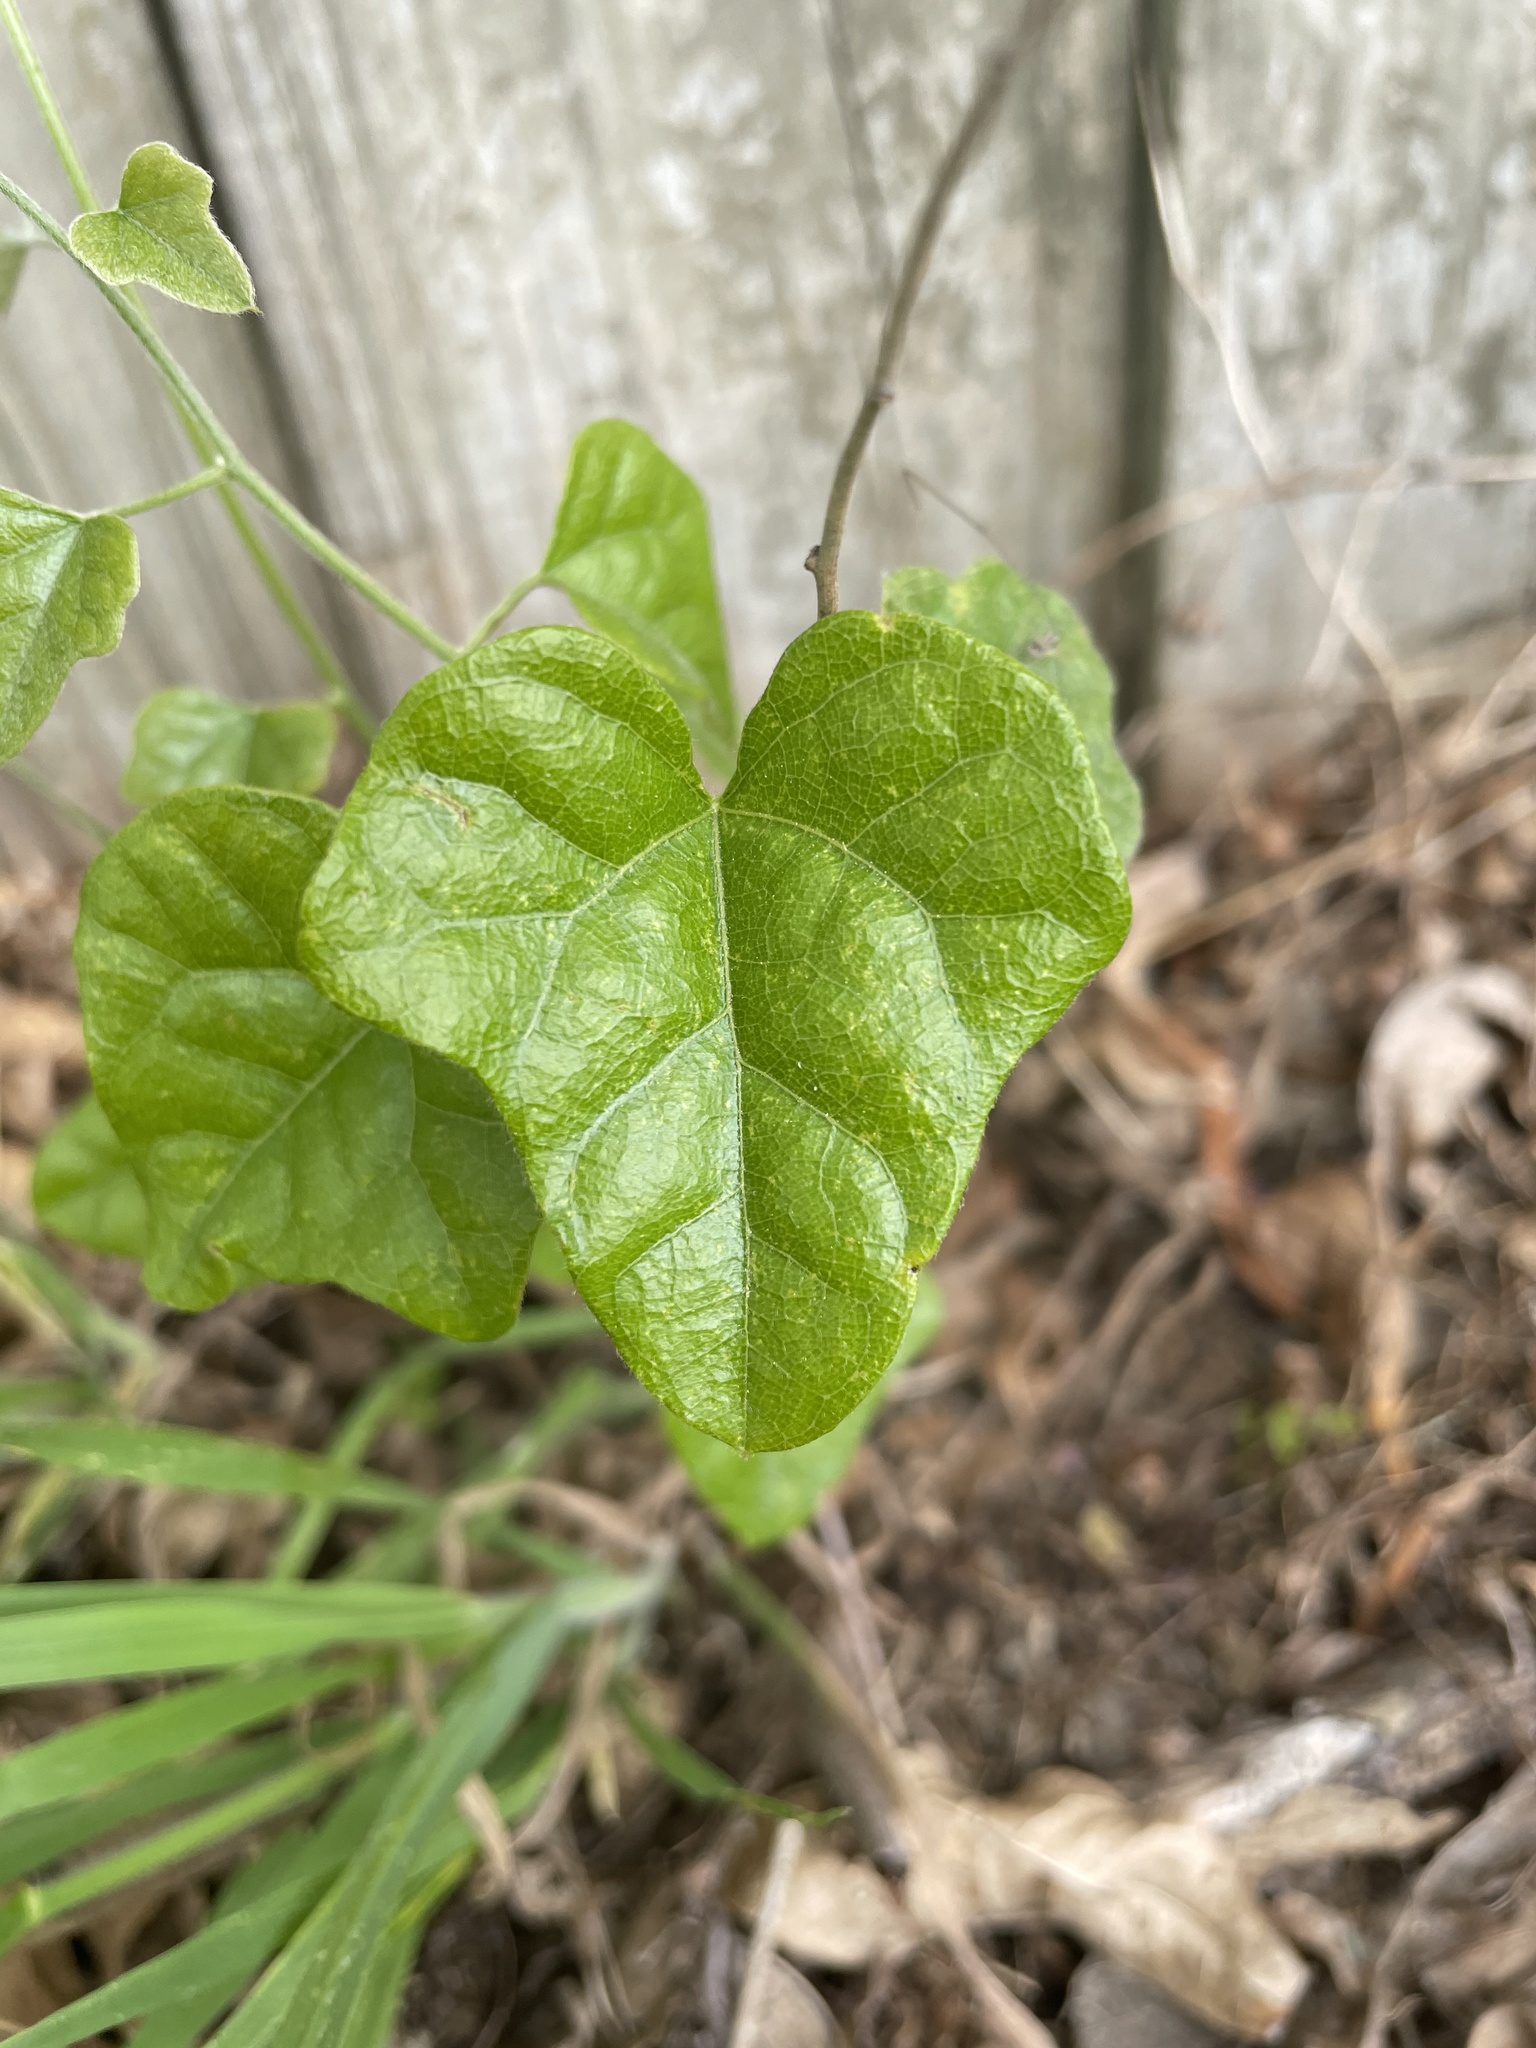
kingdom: Plantae
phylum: Tracheophyta
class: Magnoliopsida
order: Ranunculales
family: Menispermaceae
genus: Cocculus
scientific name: Cocculus carolinus
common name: Carolina moonseed
